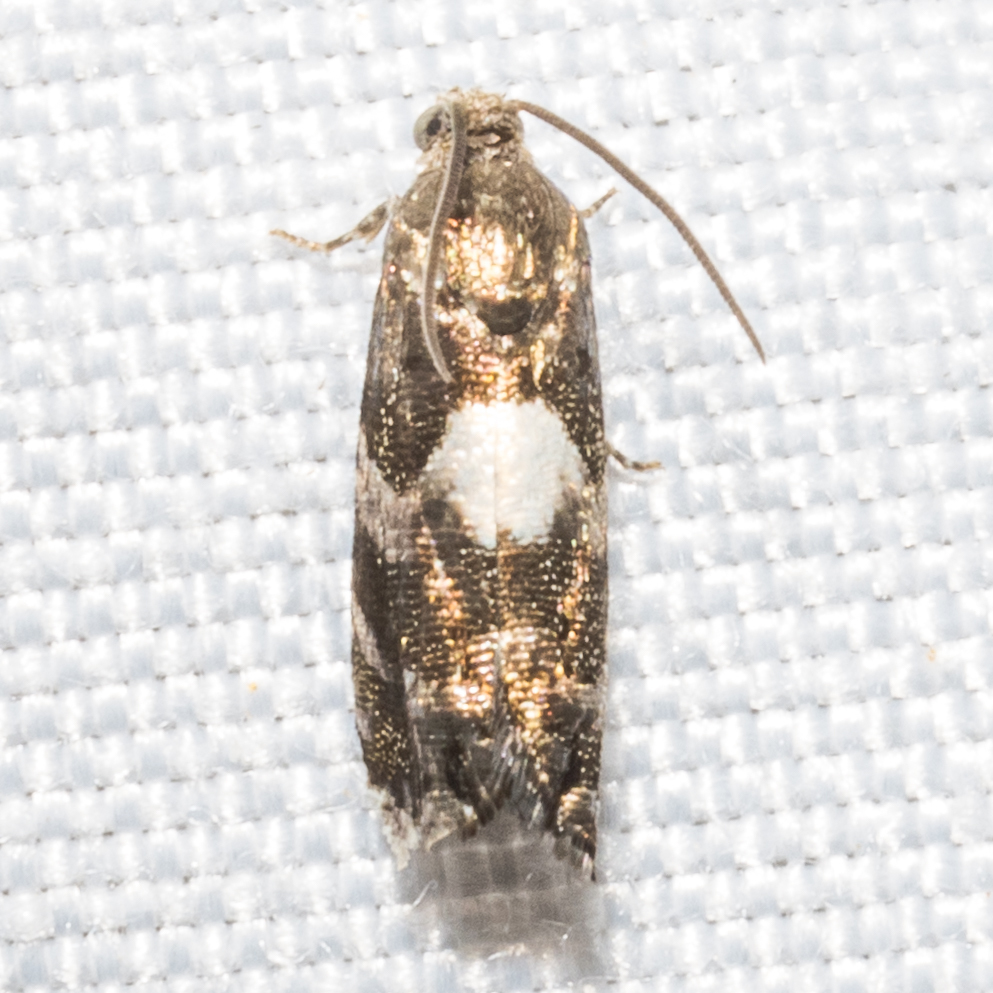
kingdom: Animalia
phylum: Arthropoda
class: Insecta
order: Lepidoptera
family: Tortricidae
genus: Cydia
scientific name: Cydia albimaculana
